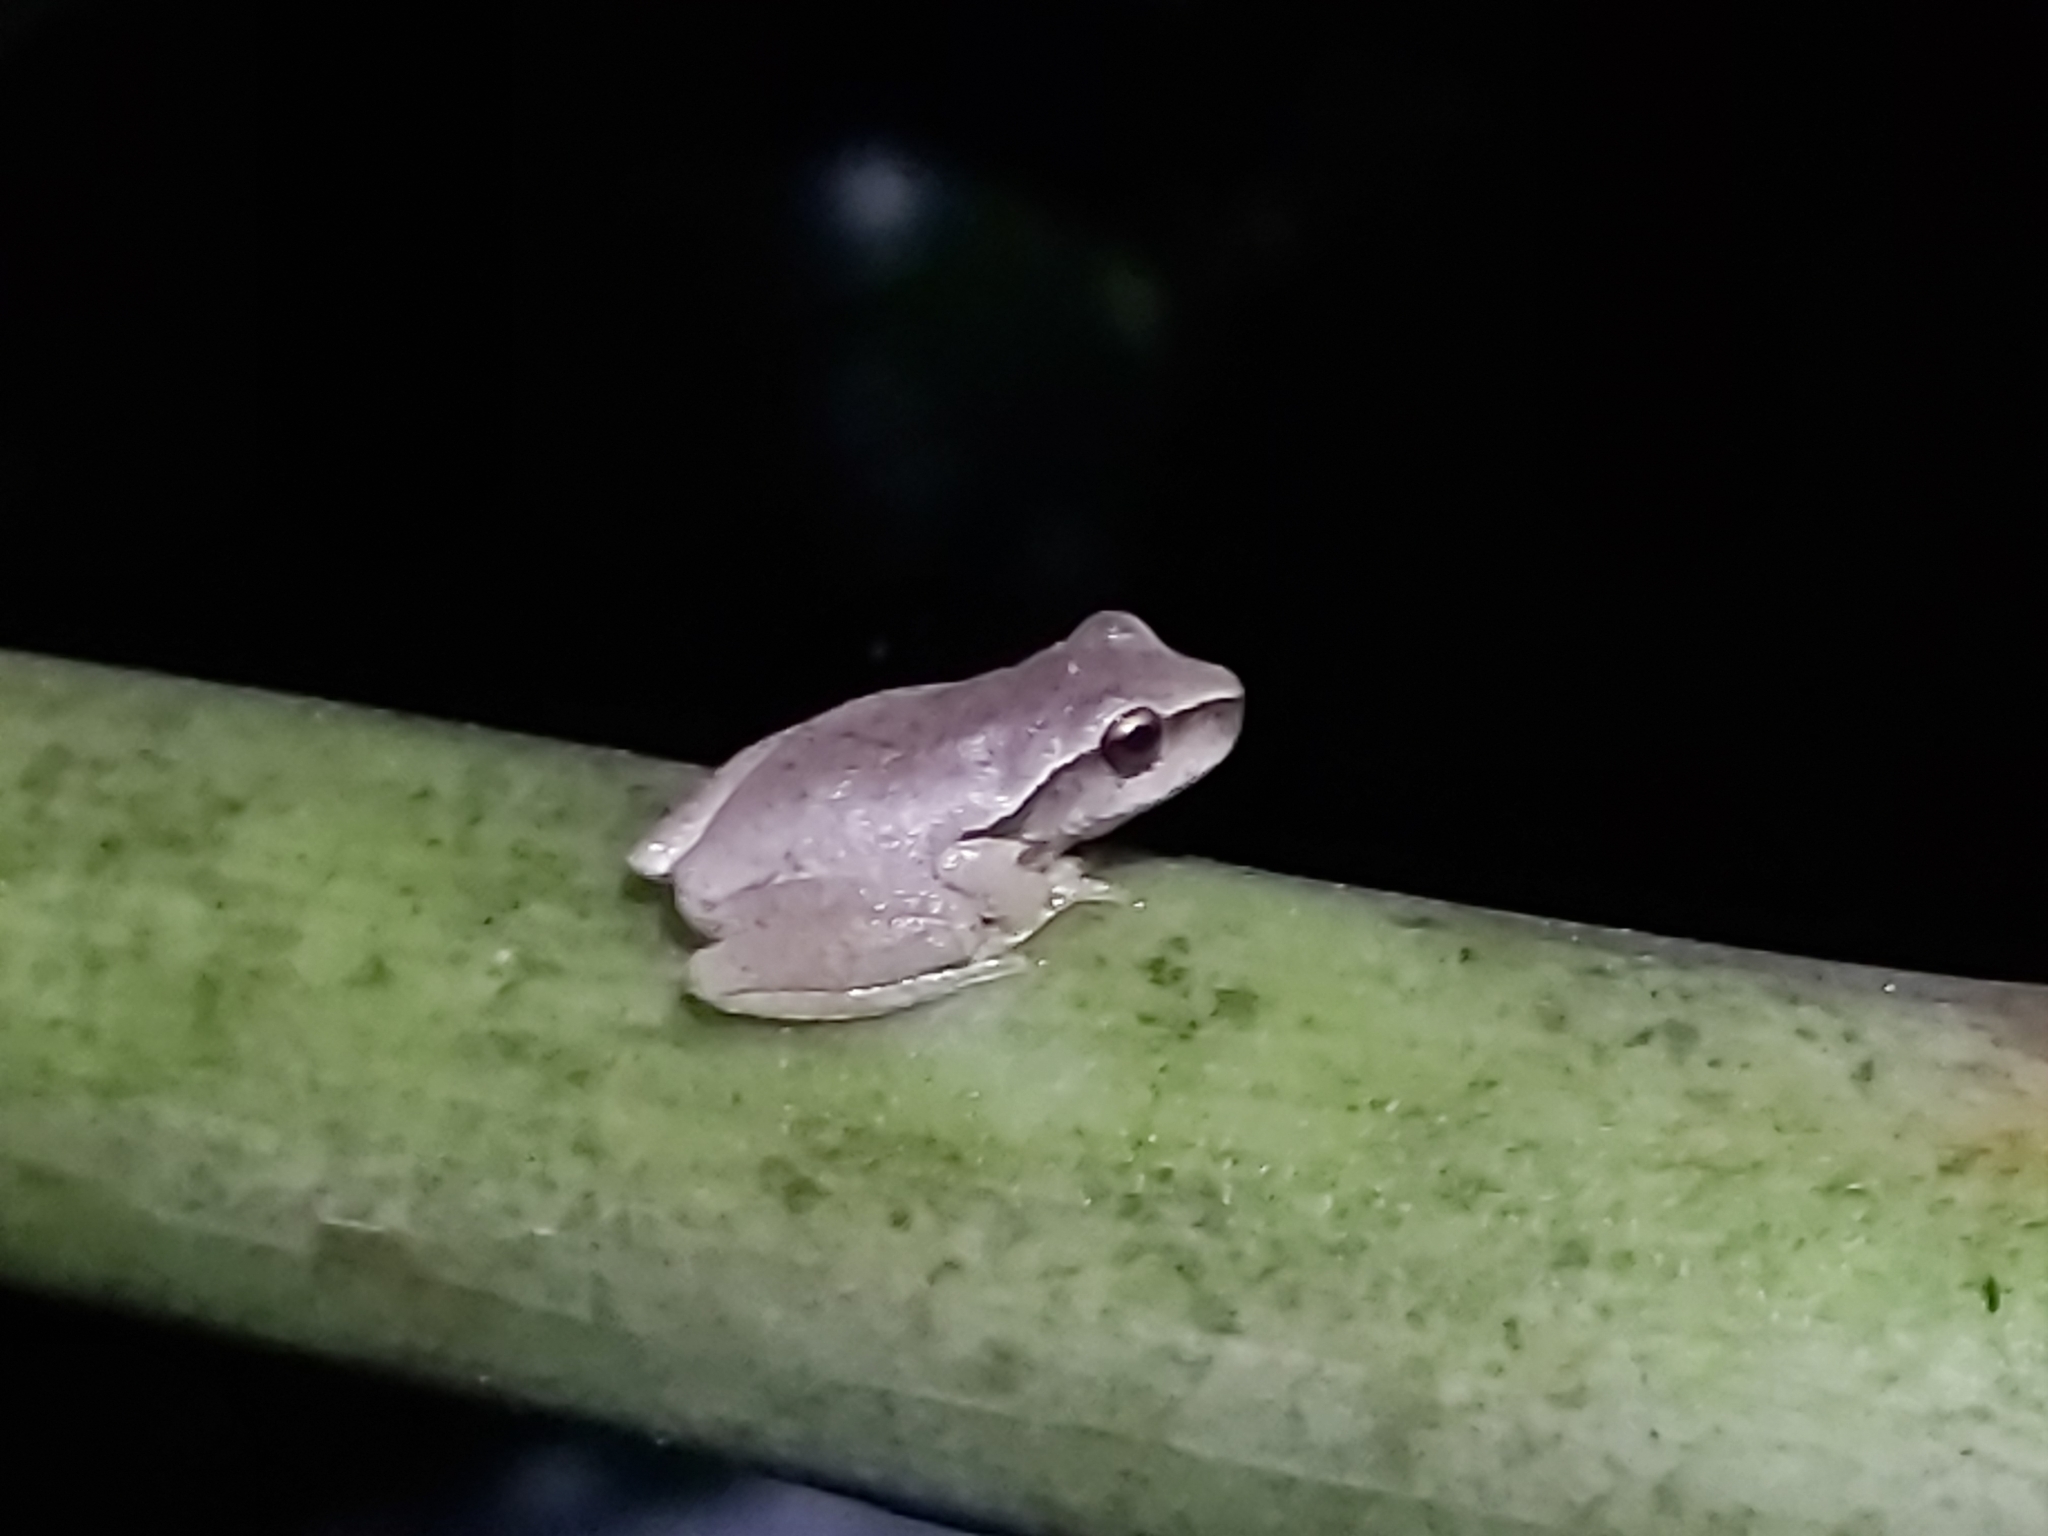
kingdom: Animalia
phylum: Chordata
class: Amphibia
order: Anura
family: Pelodryadidae
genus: Ranoidea
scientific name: Ranoidea phyllochroa
